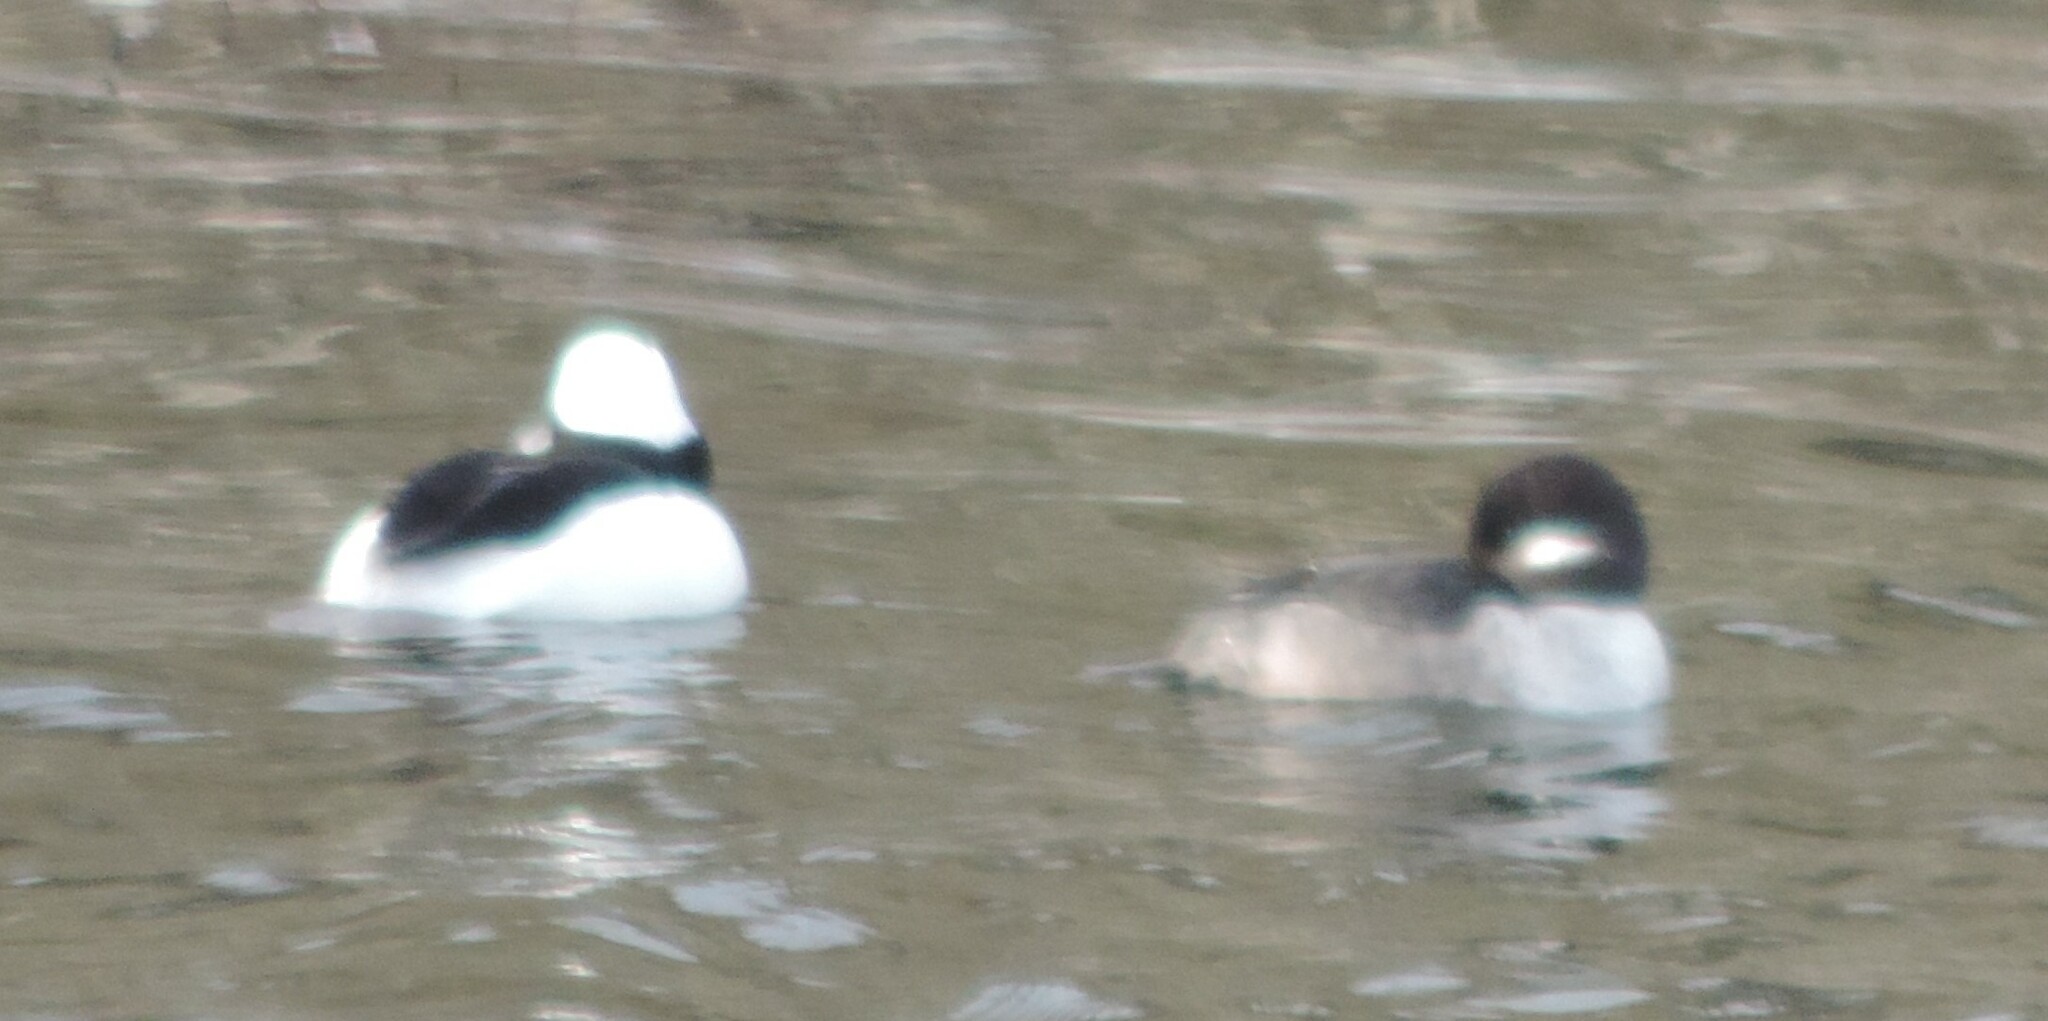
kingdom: Animalia
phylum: Chordata
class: Aves
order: Anseriformes
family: Anatidae
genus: Bucephala
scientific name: Bucephala albeola
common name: Bufflehead
